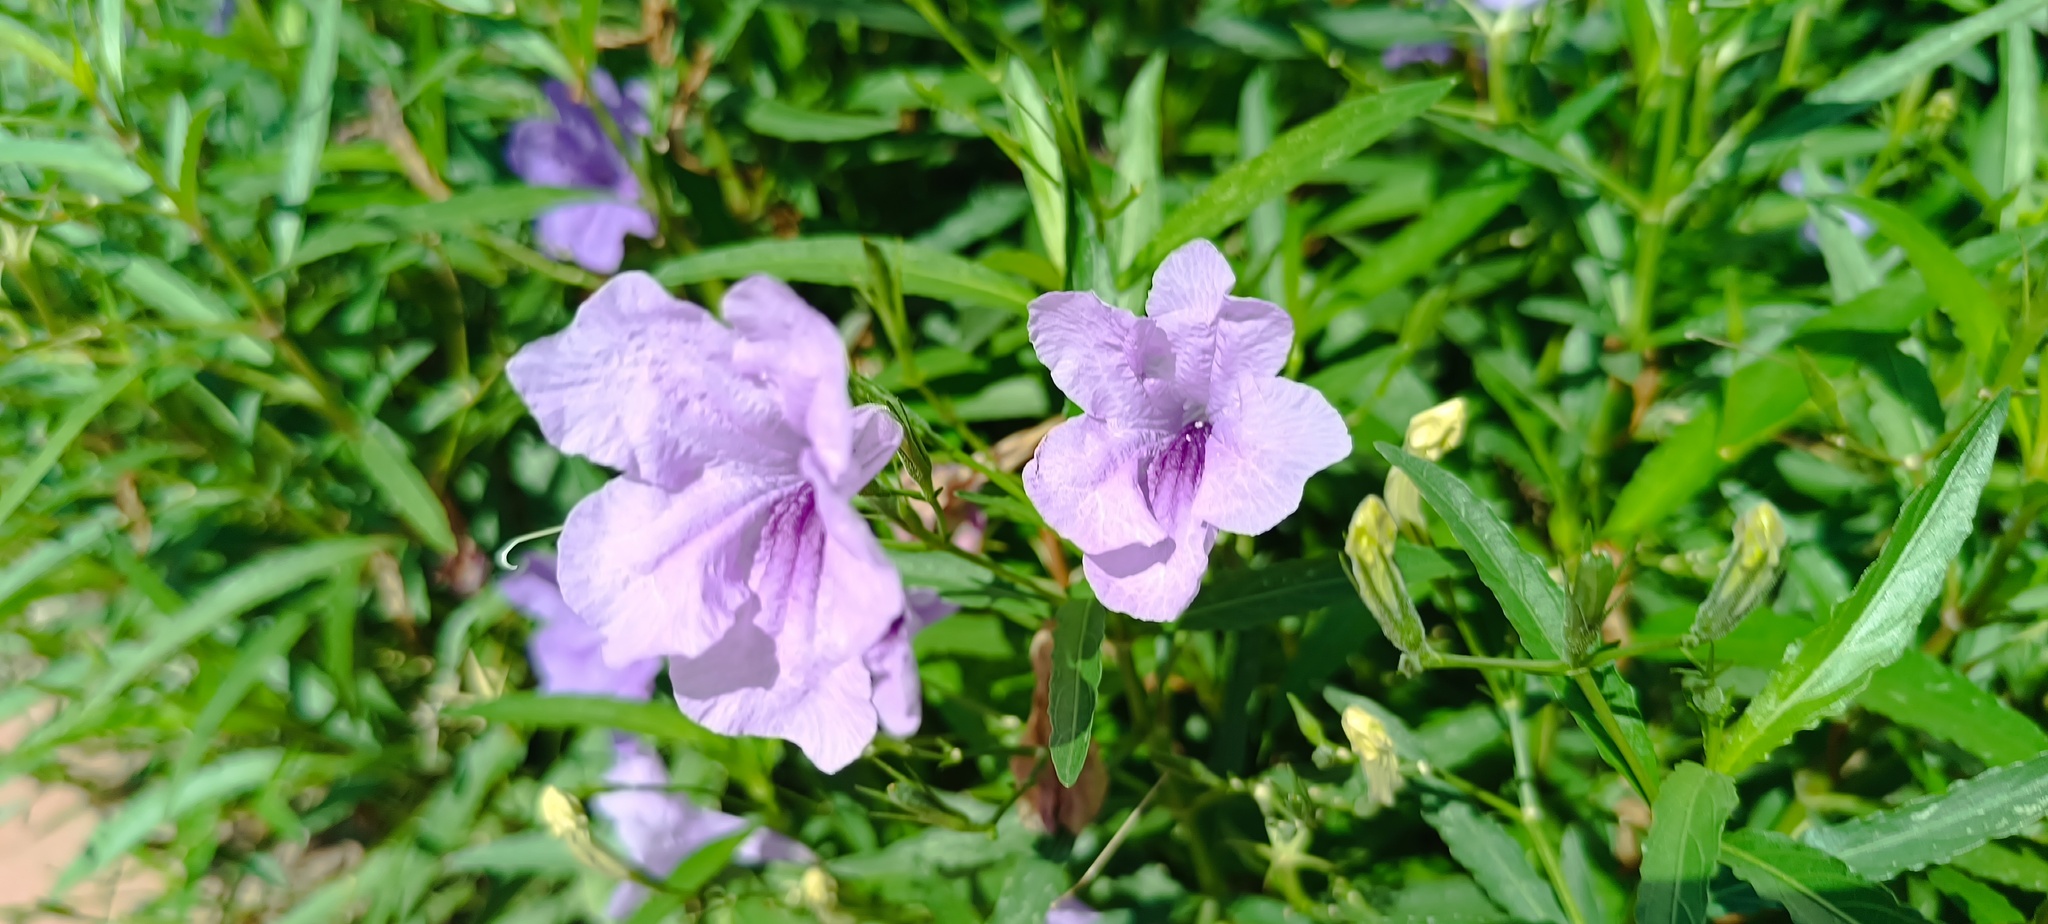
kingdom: Plantae
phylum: Tracheophyta
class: Magnoliopsida
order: Lamiales
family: Acanthaceae
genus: Ruellia
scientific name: Ruellia simplex
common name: Softseed wild petunia
